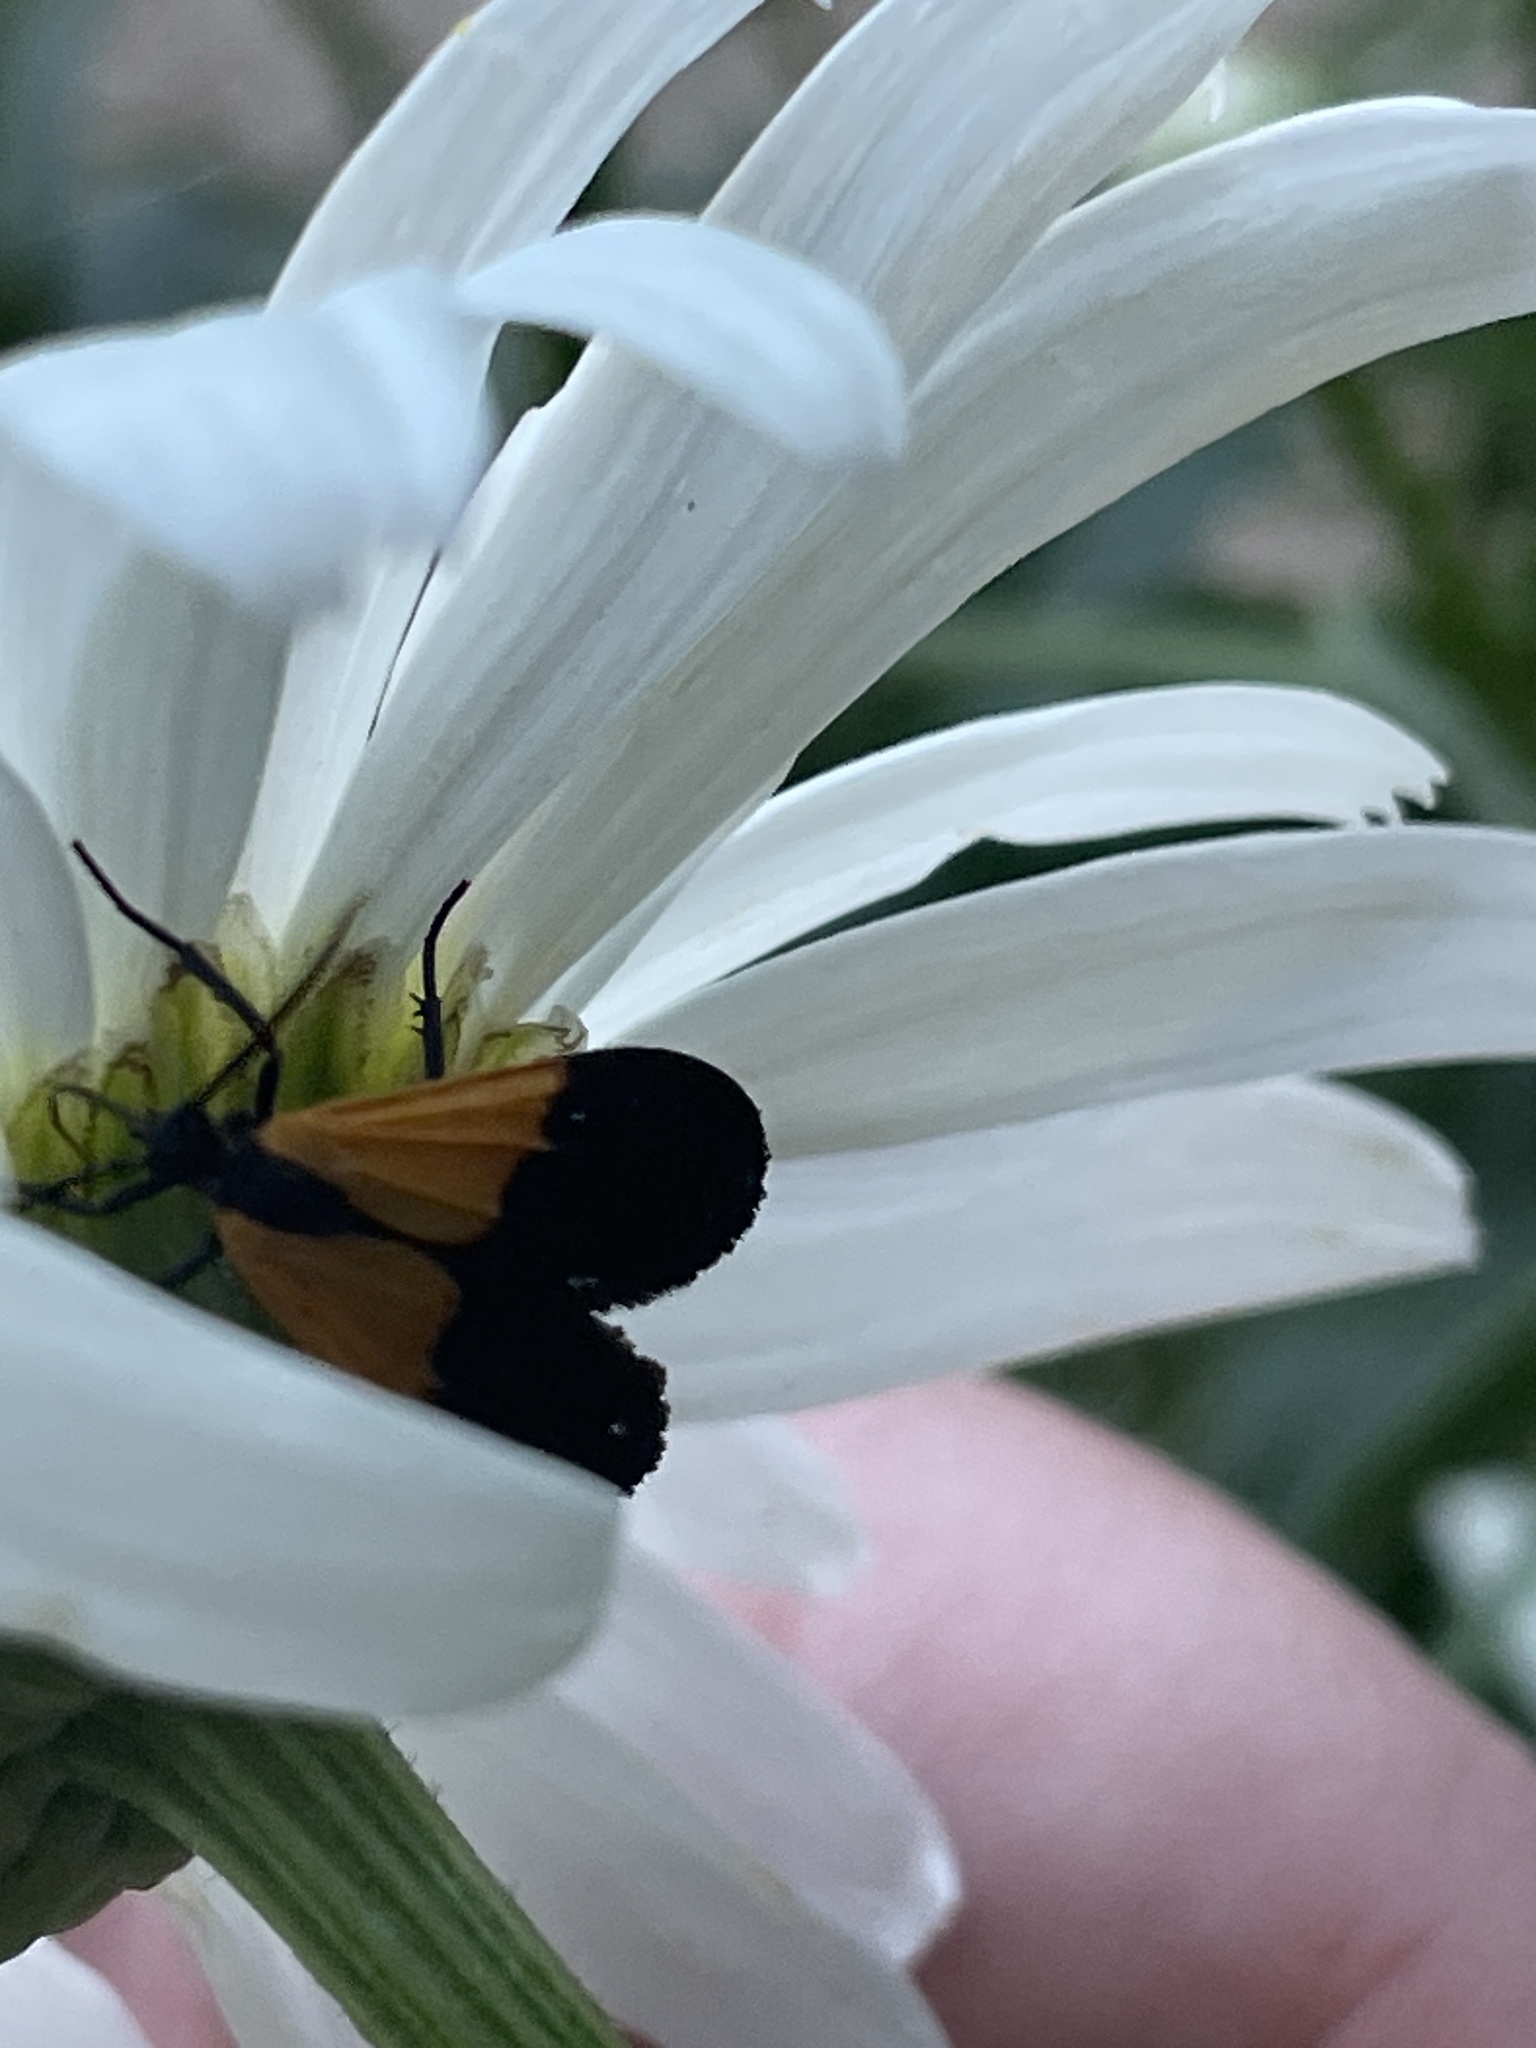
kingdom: Animalia
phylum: Arthropoda
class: Insecta
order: Lepidoptera
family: Erebidae
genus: Lycomorpha
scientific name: Lycomorpha pholus
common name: Black-and-yellow lichen moth
